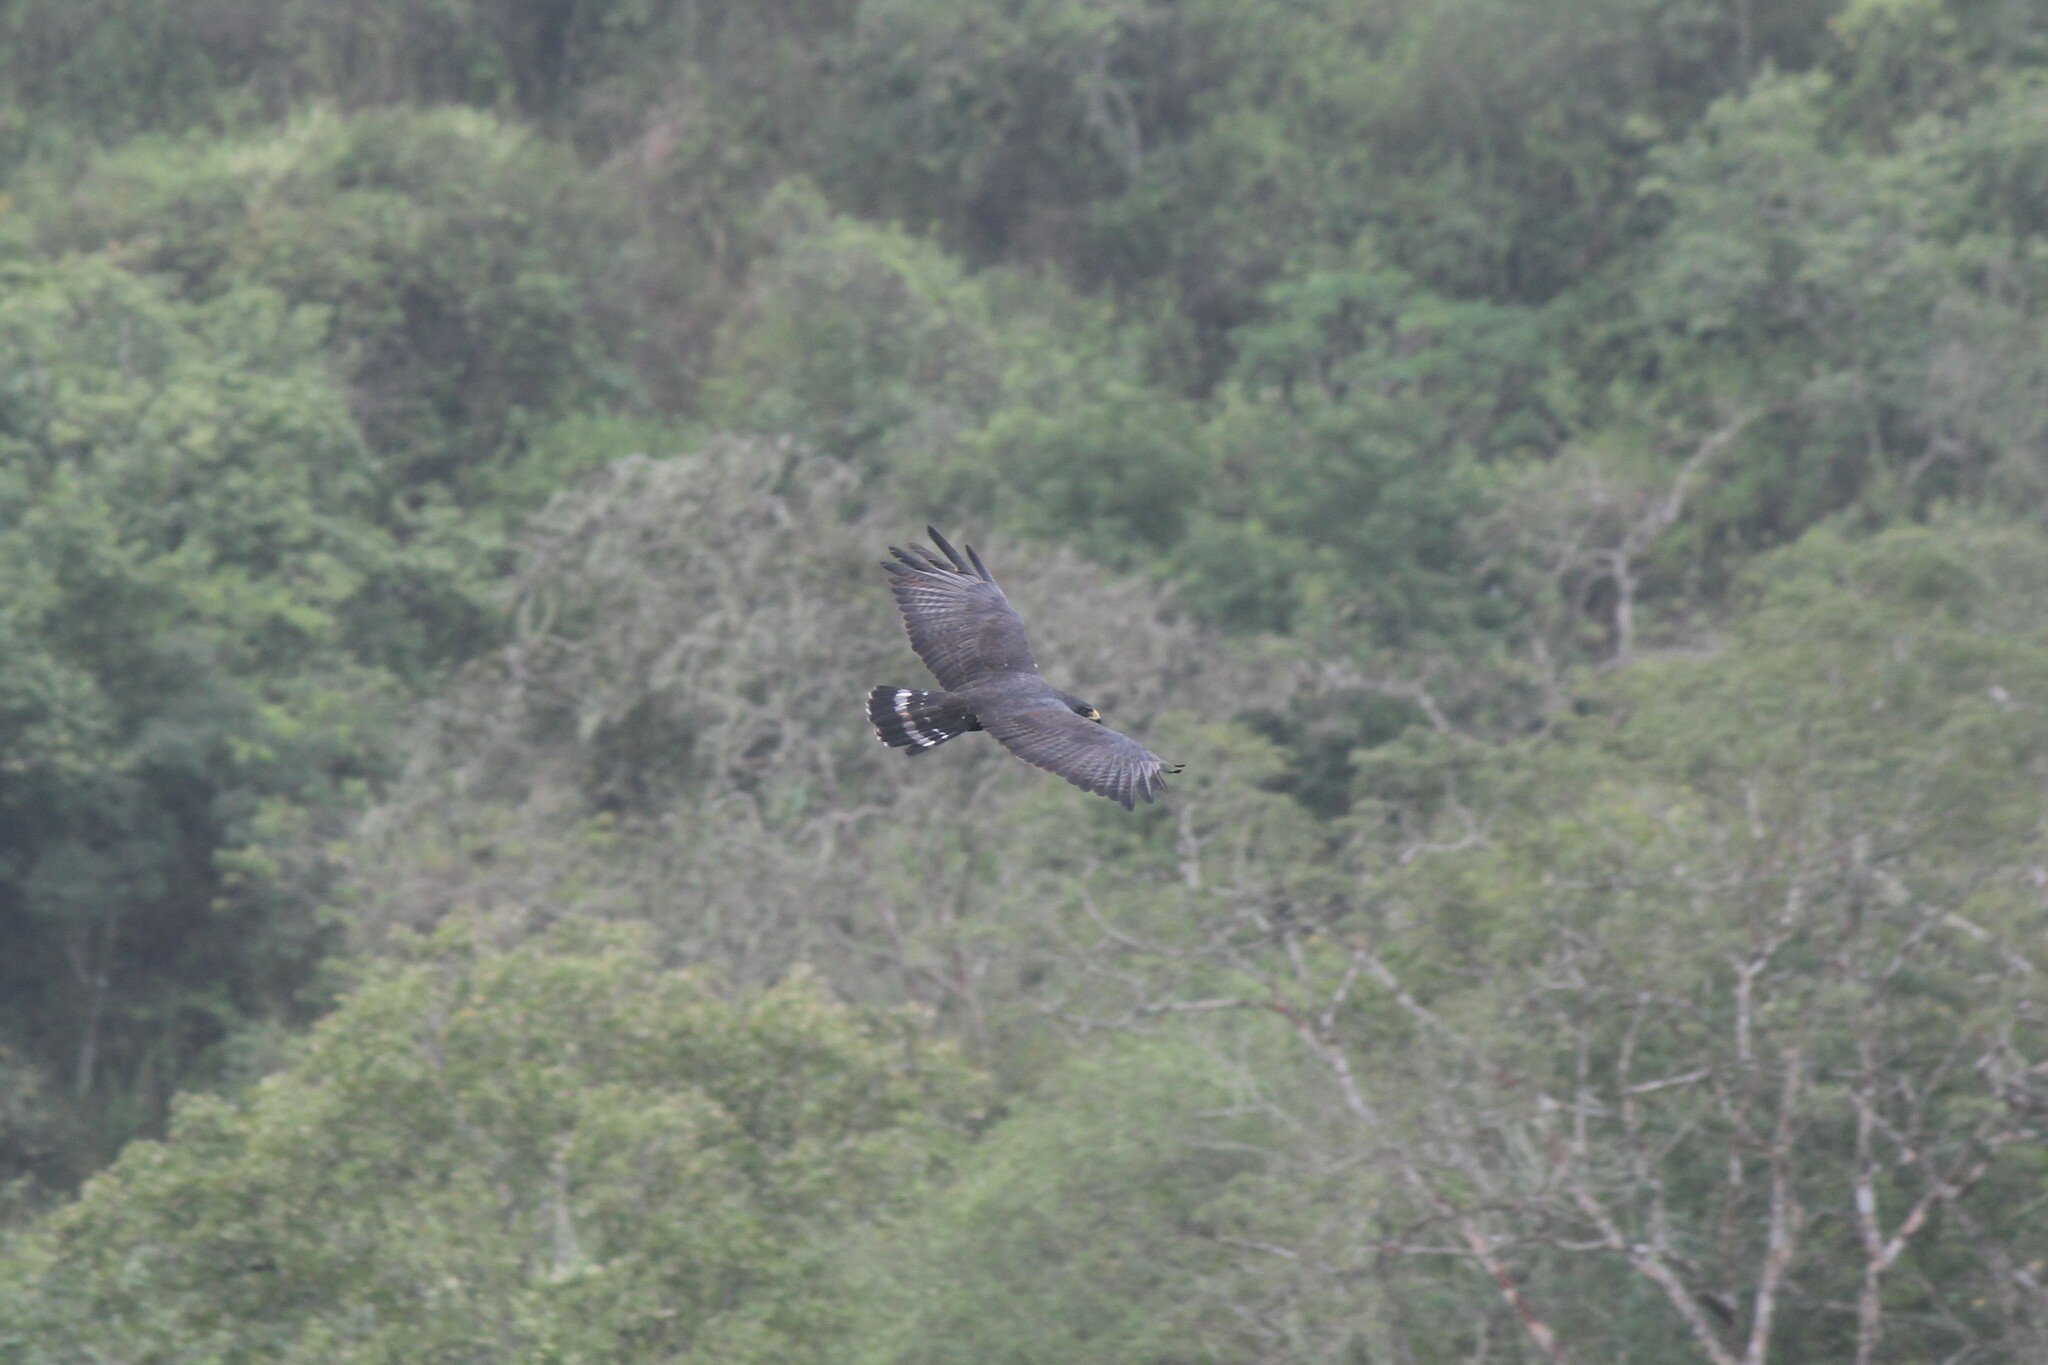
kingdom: Animalia
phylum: Chordata
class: Aves
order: Accipitriformes
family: Accipitridae
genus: Buteo
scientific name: Buteo albonotatus
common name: Zone-tailed hawk
